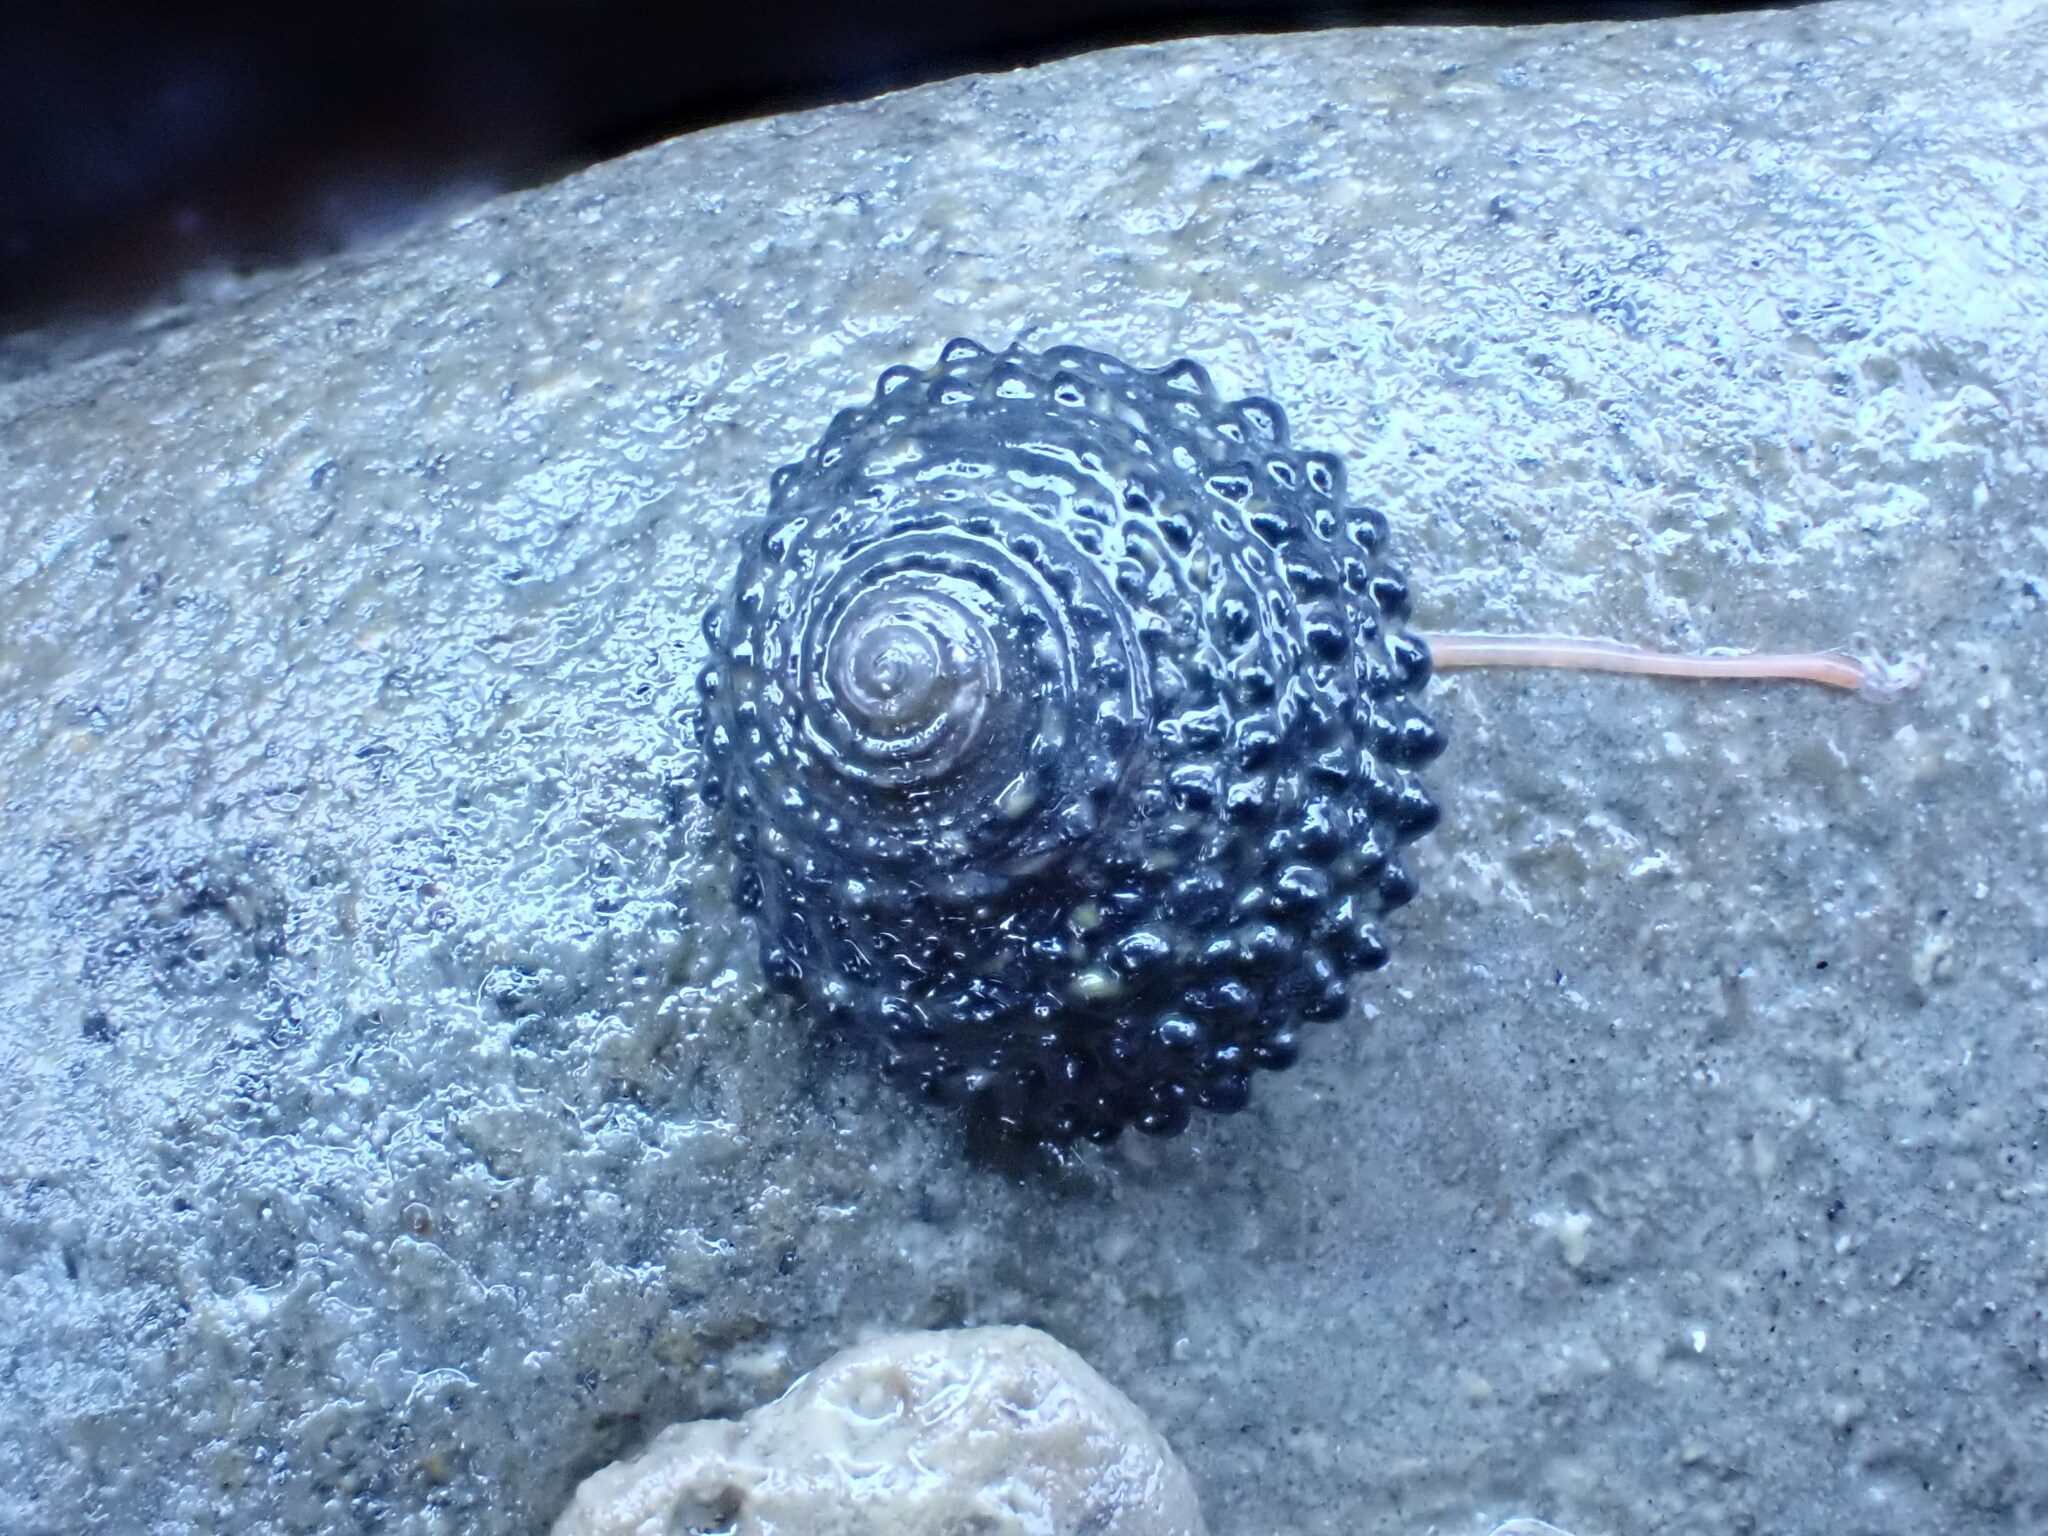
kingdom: Animalia
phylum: Mollusca
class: Gastropoda
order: Trochida
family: Trochidae
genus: Diloma
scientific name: Diloma bicanaliculatum
